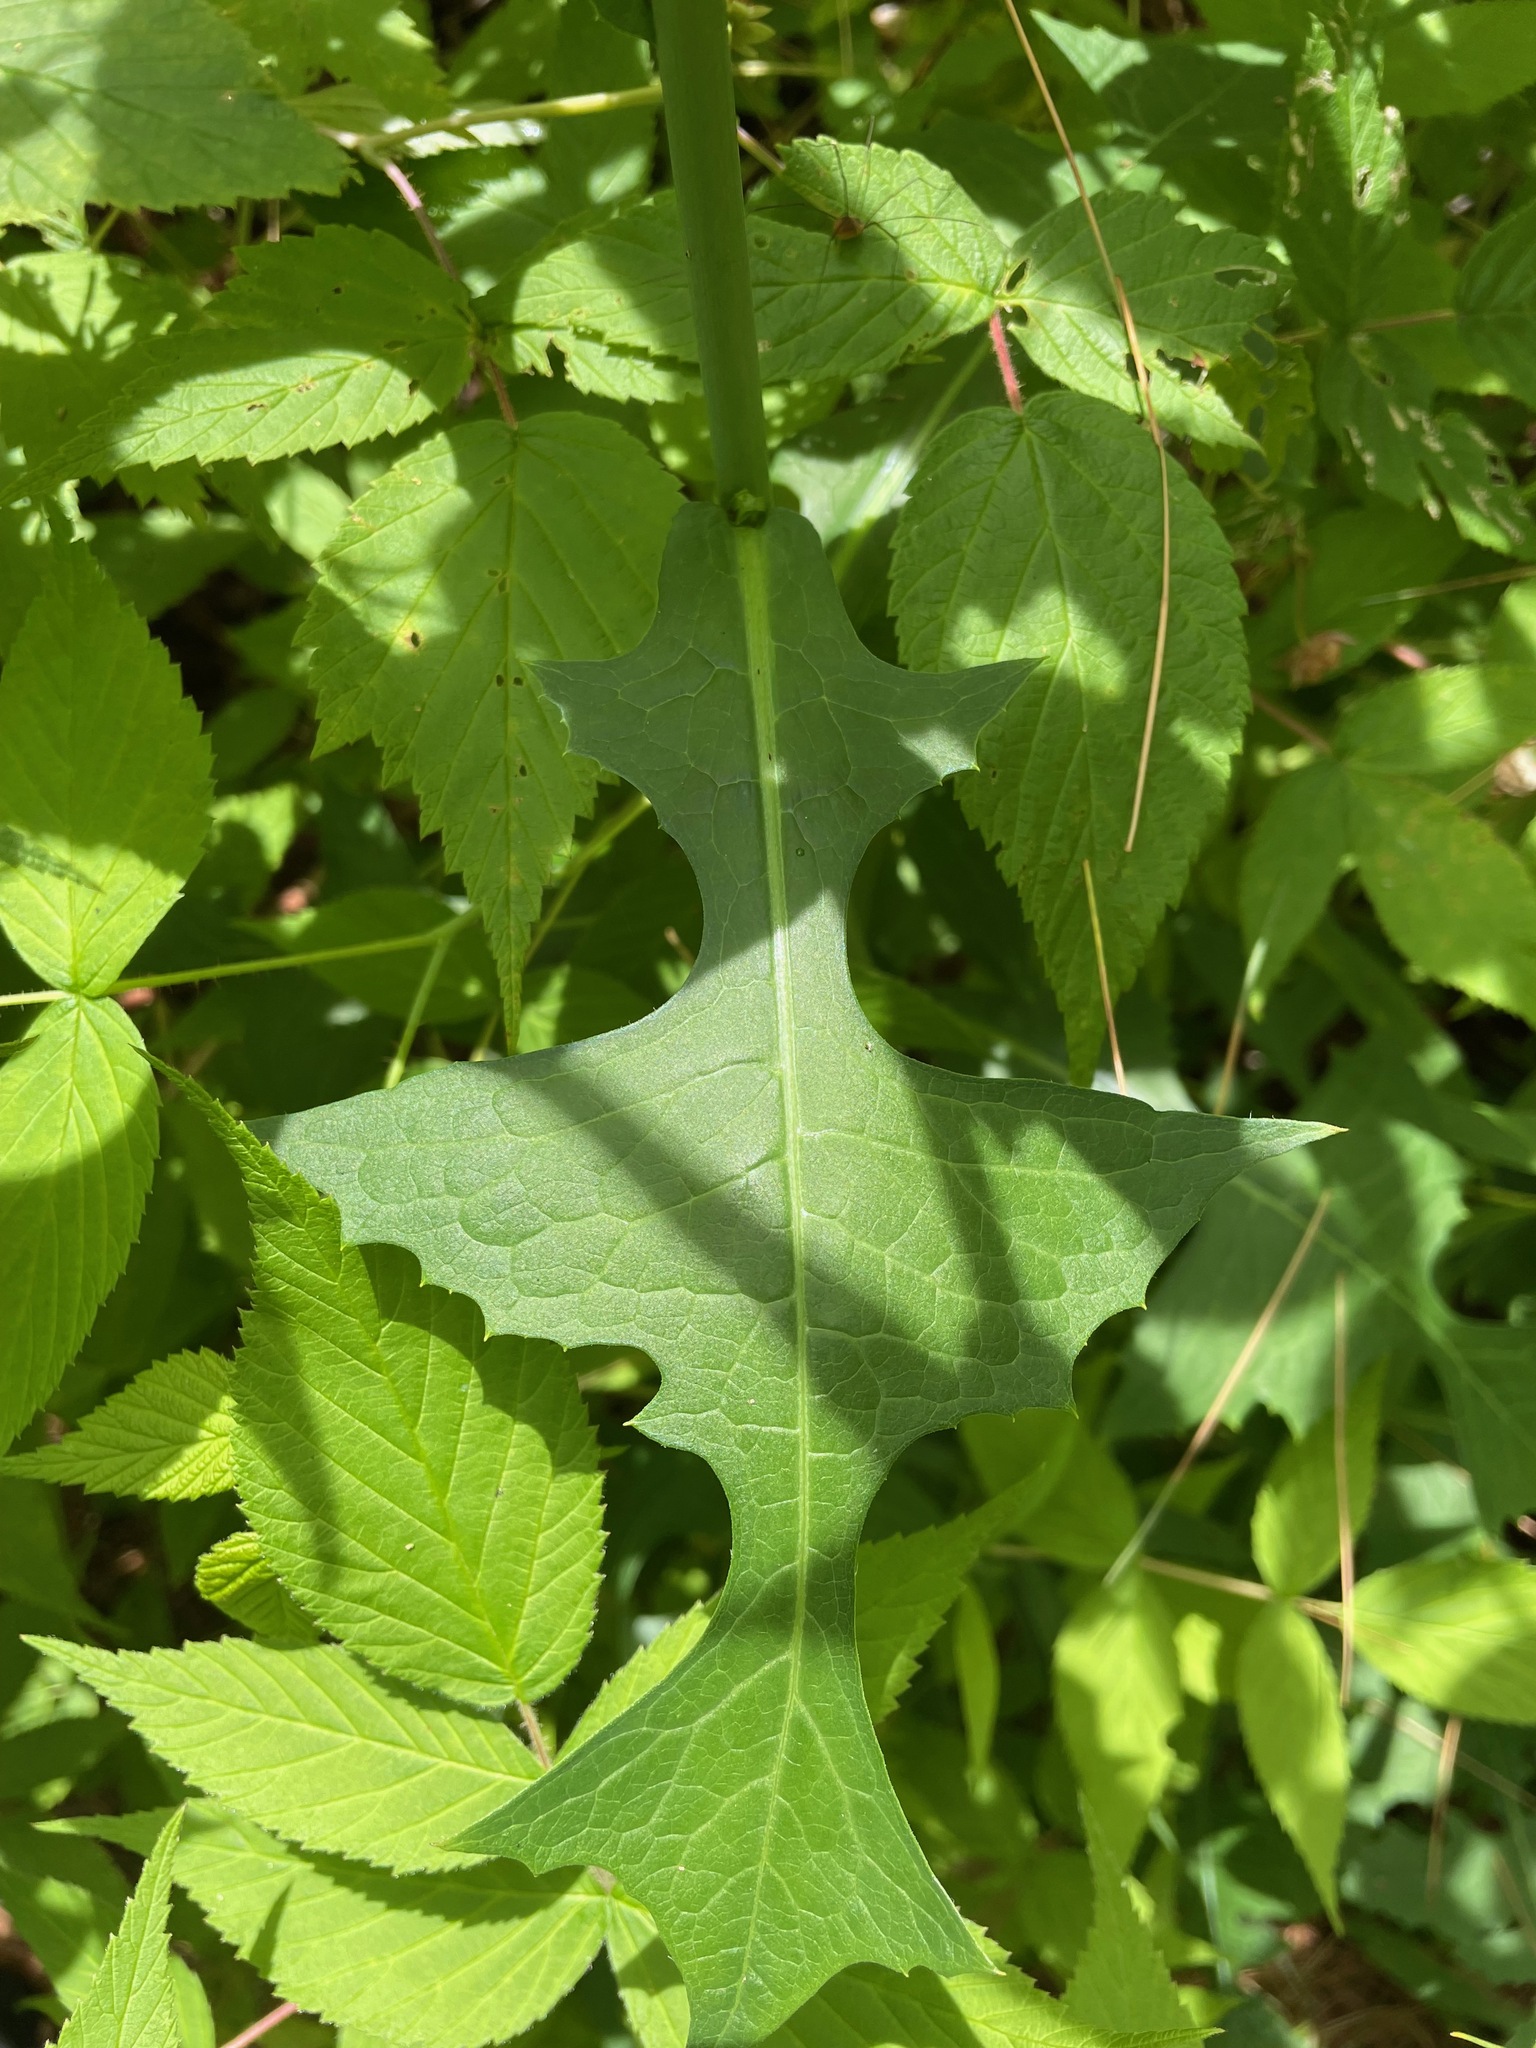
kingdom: Plantae
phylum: Tracheophyta
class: Magnoliopsida
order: Asterales
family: Asteraceae
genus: Lactuca
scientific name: Lactuca biennis
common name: Blue wood lettuce
